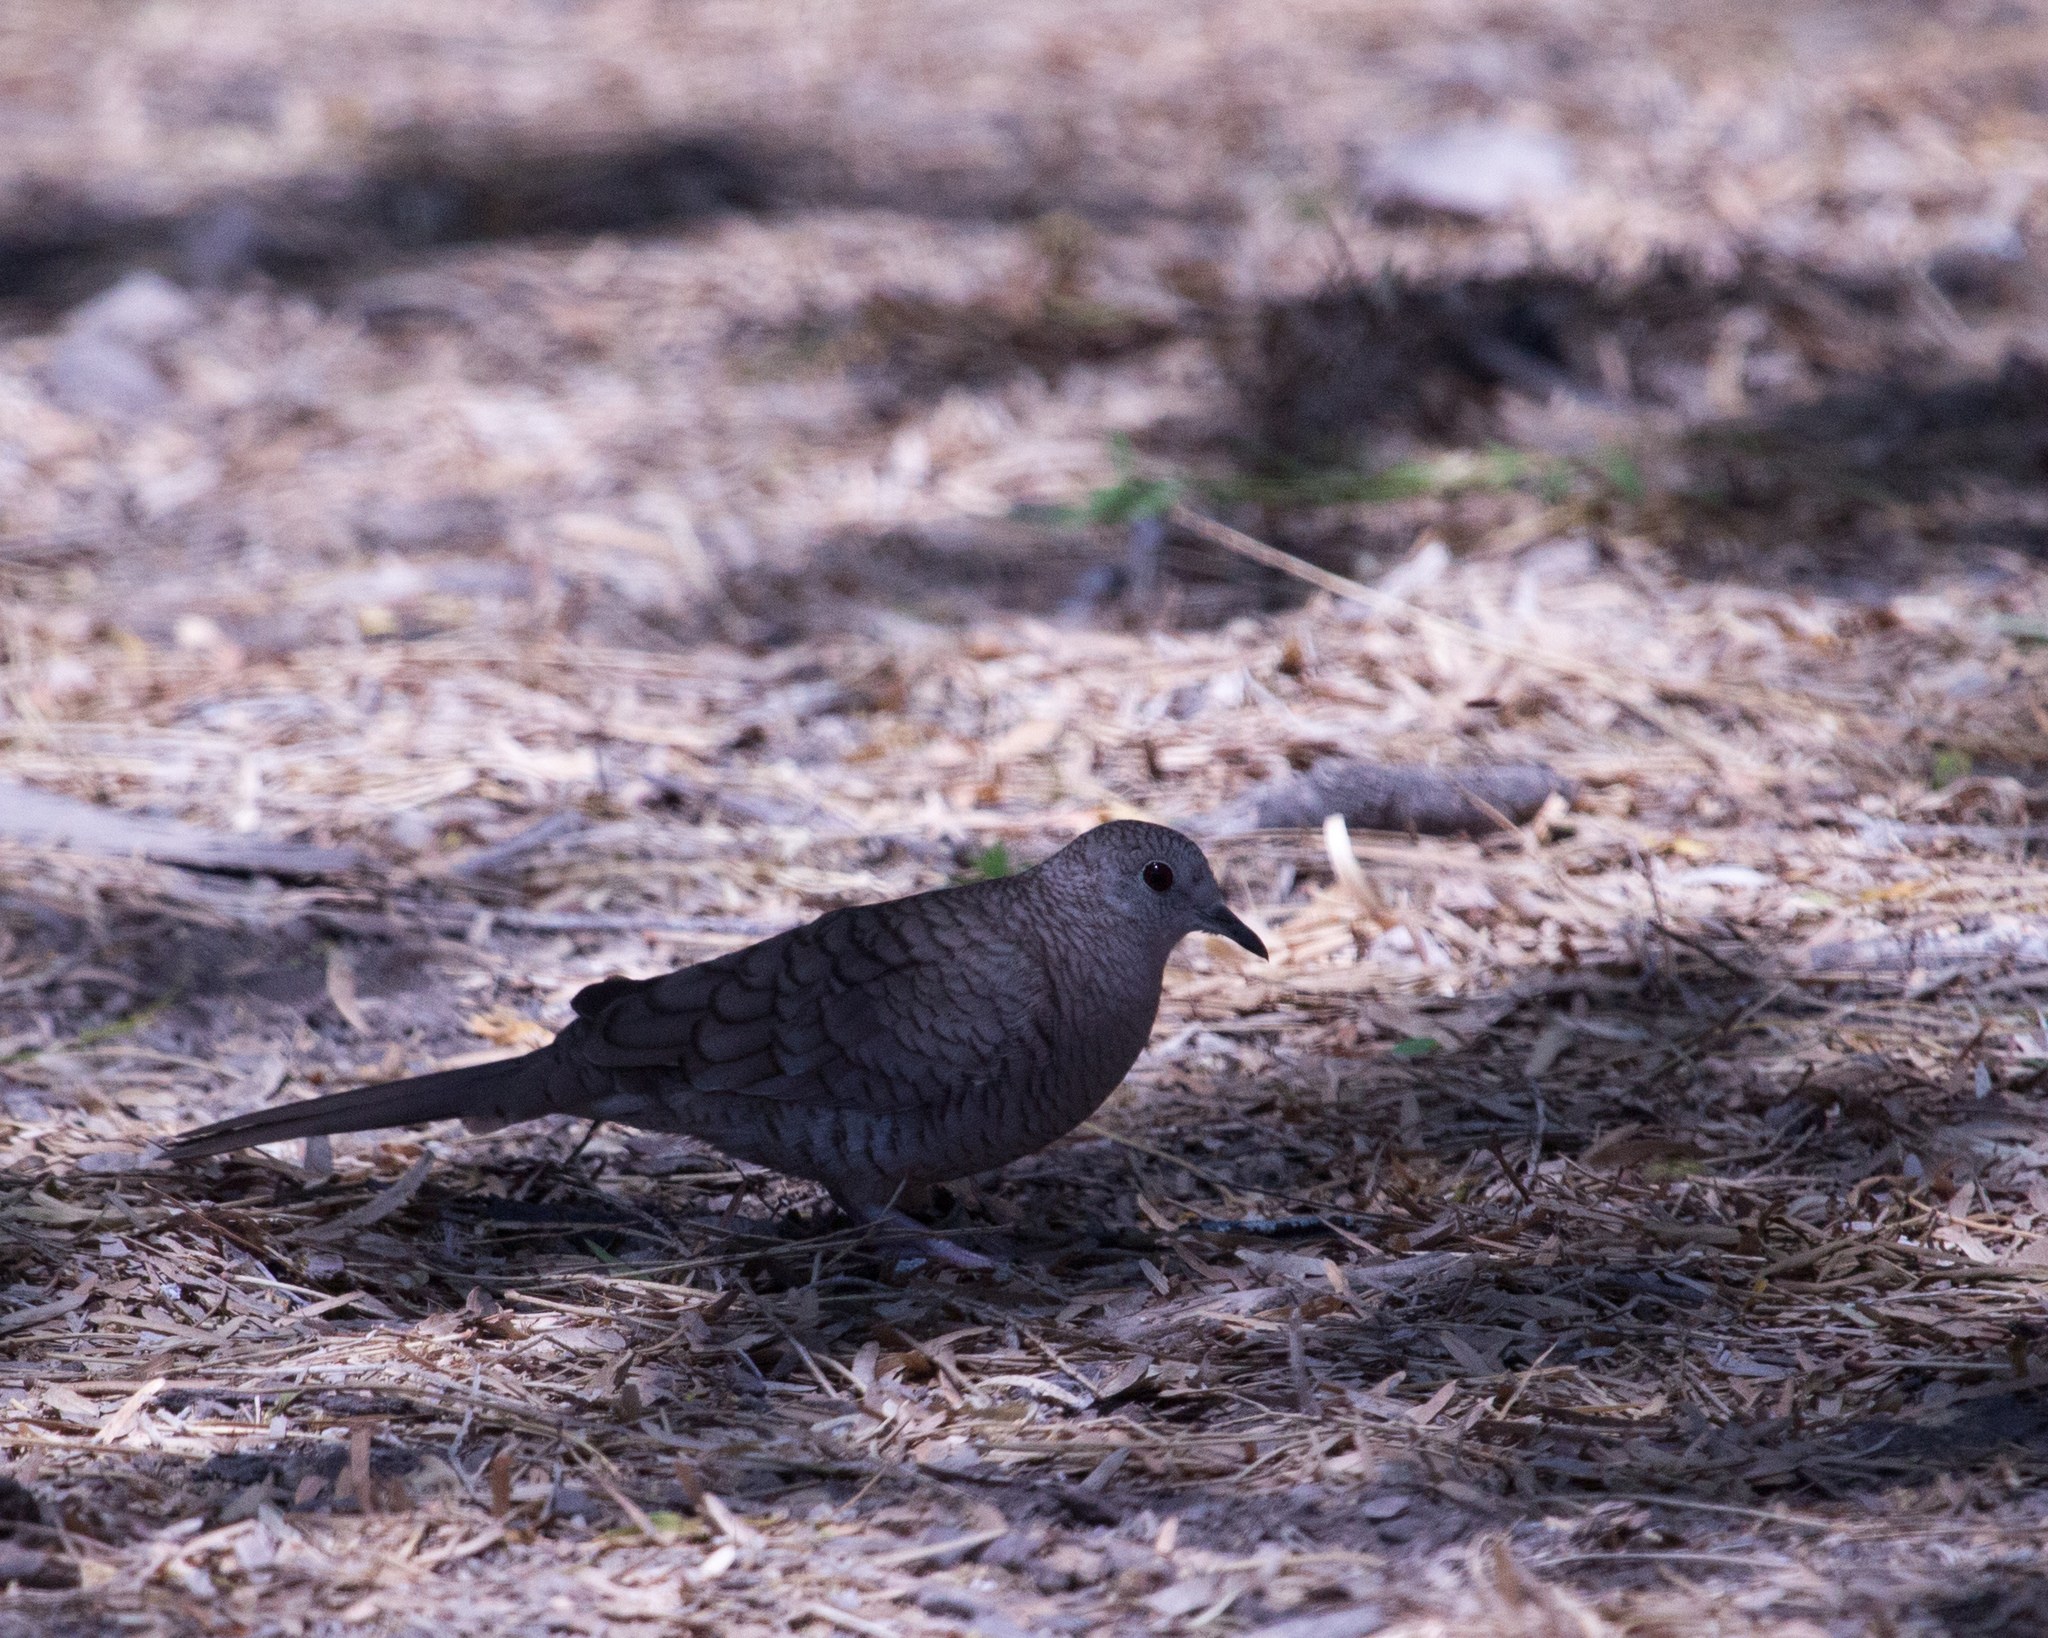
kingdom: Animalia
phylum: Chordata
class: Aves
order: Columbiformes
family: Columbidae
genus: Columbina
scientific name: Columbina inca
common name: Inca dove
